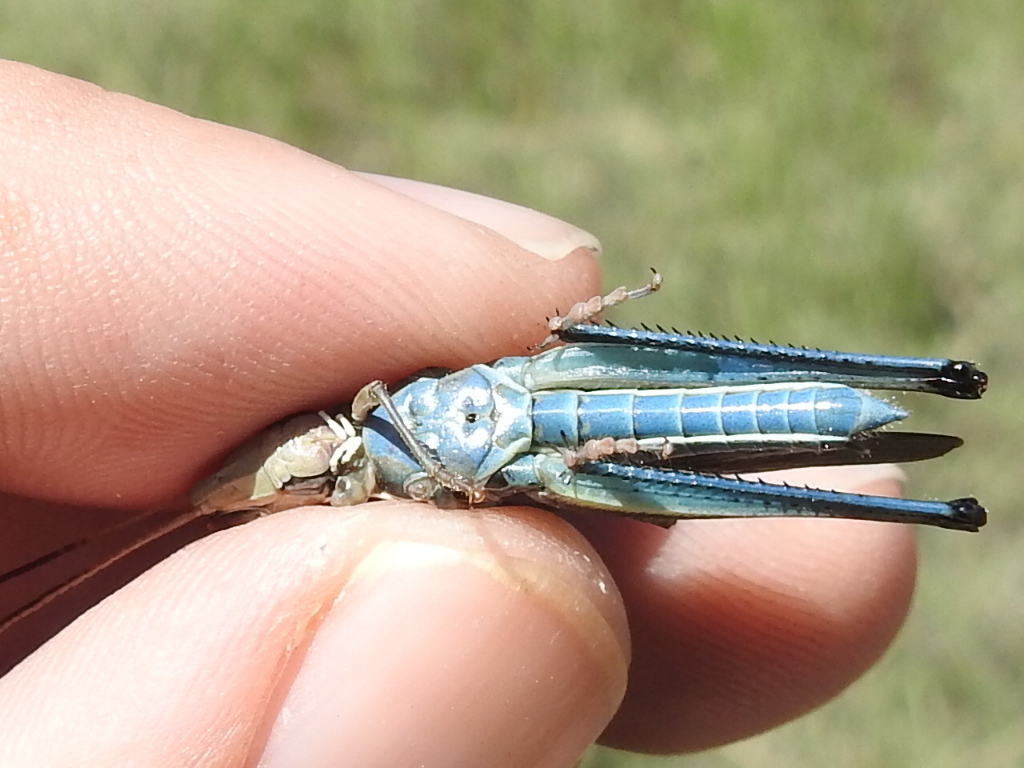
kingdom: Animalia
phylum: Arthropoda
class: Insecta
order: Orthoptera
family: Acrididae
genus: Syrbula
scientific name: Syrbula montezuma
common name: Montezuma's grasshopper
